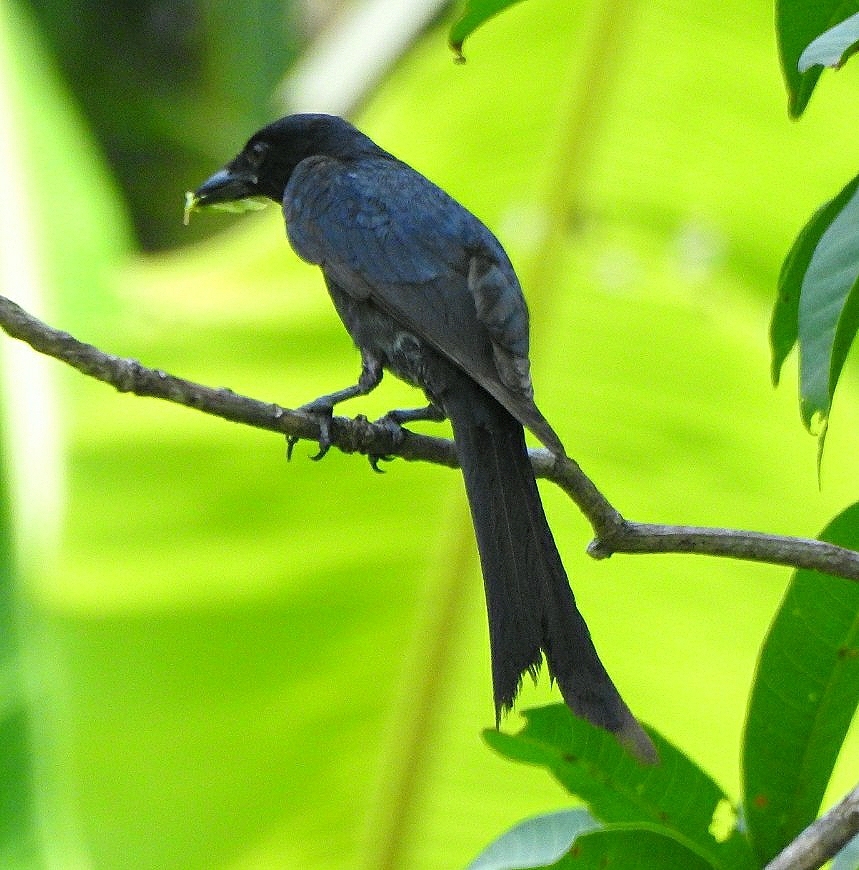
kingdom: Animalia
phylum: Chordata
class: Aves
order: Passeriformes
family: Dicruridae
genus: Dicrurus
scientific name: Dicrurus macrocercus
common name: Black drongo
